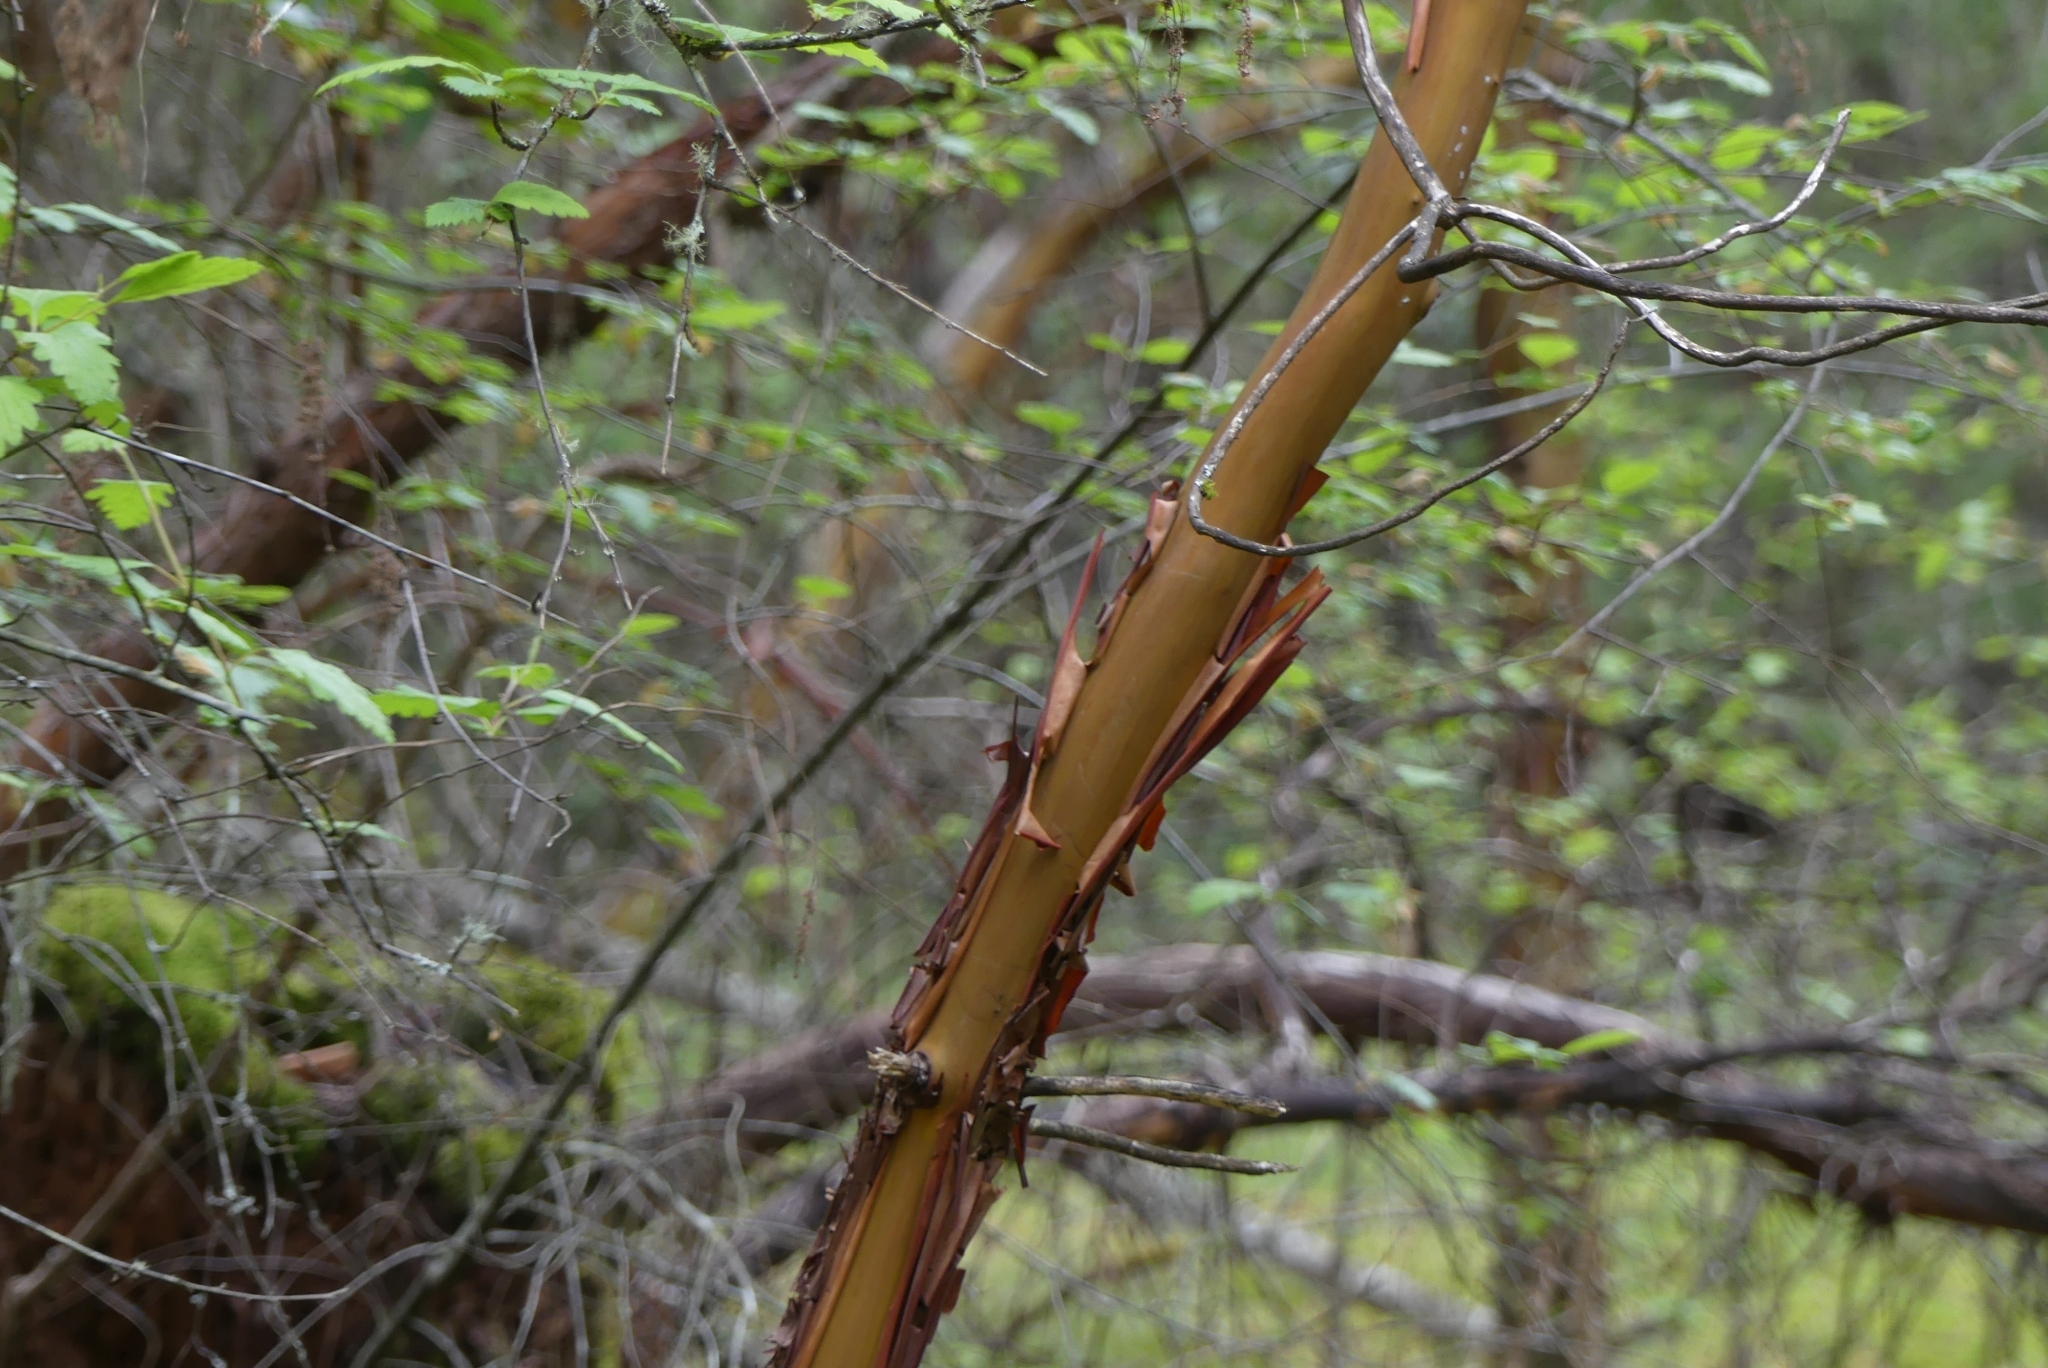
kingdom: Plantae
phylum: Tracheophyta
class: Magnoliopsida
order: Ericales
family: Ericaceae
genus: Arbutus
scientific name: Arbutus menziesii
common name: Pacific madrone
